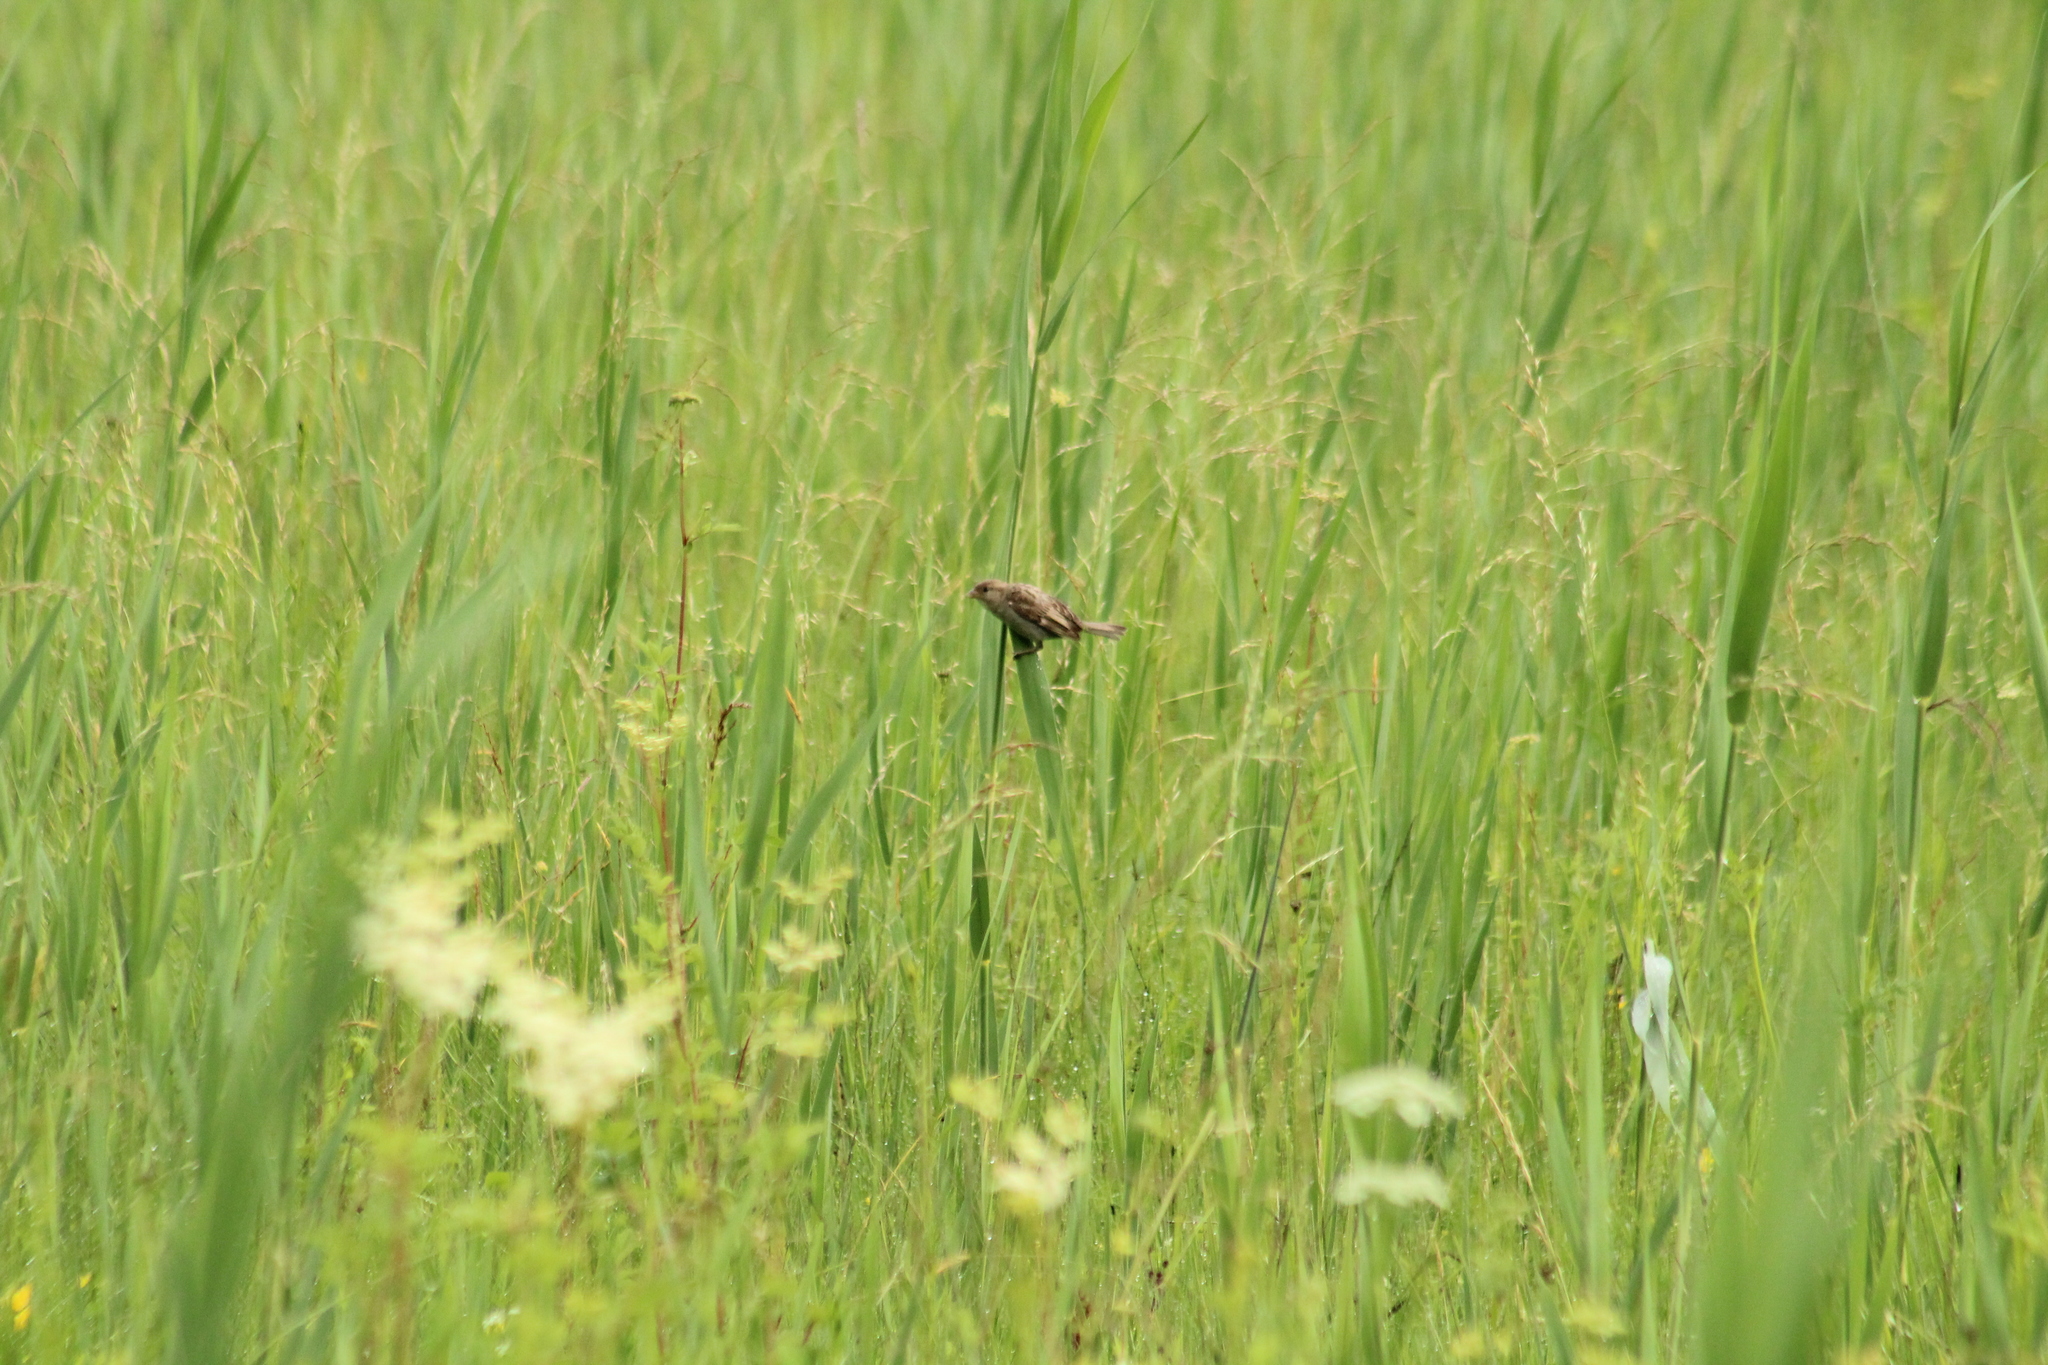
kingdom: Animalia
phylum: Chordata
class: Aves
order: Passeriformes
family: Passeridae
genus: Passer
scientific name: Passer domesticus
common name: House sparrow
